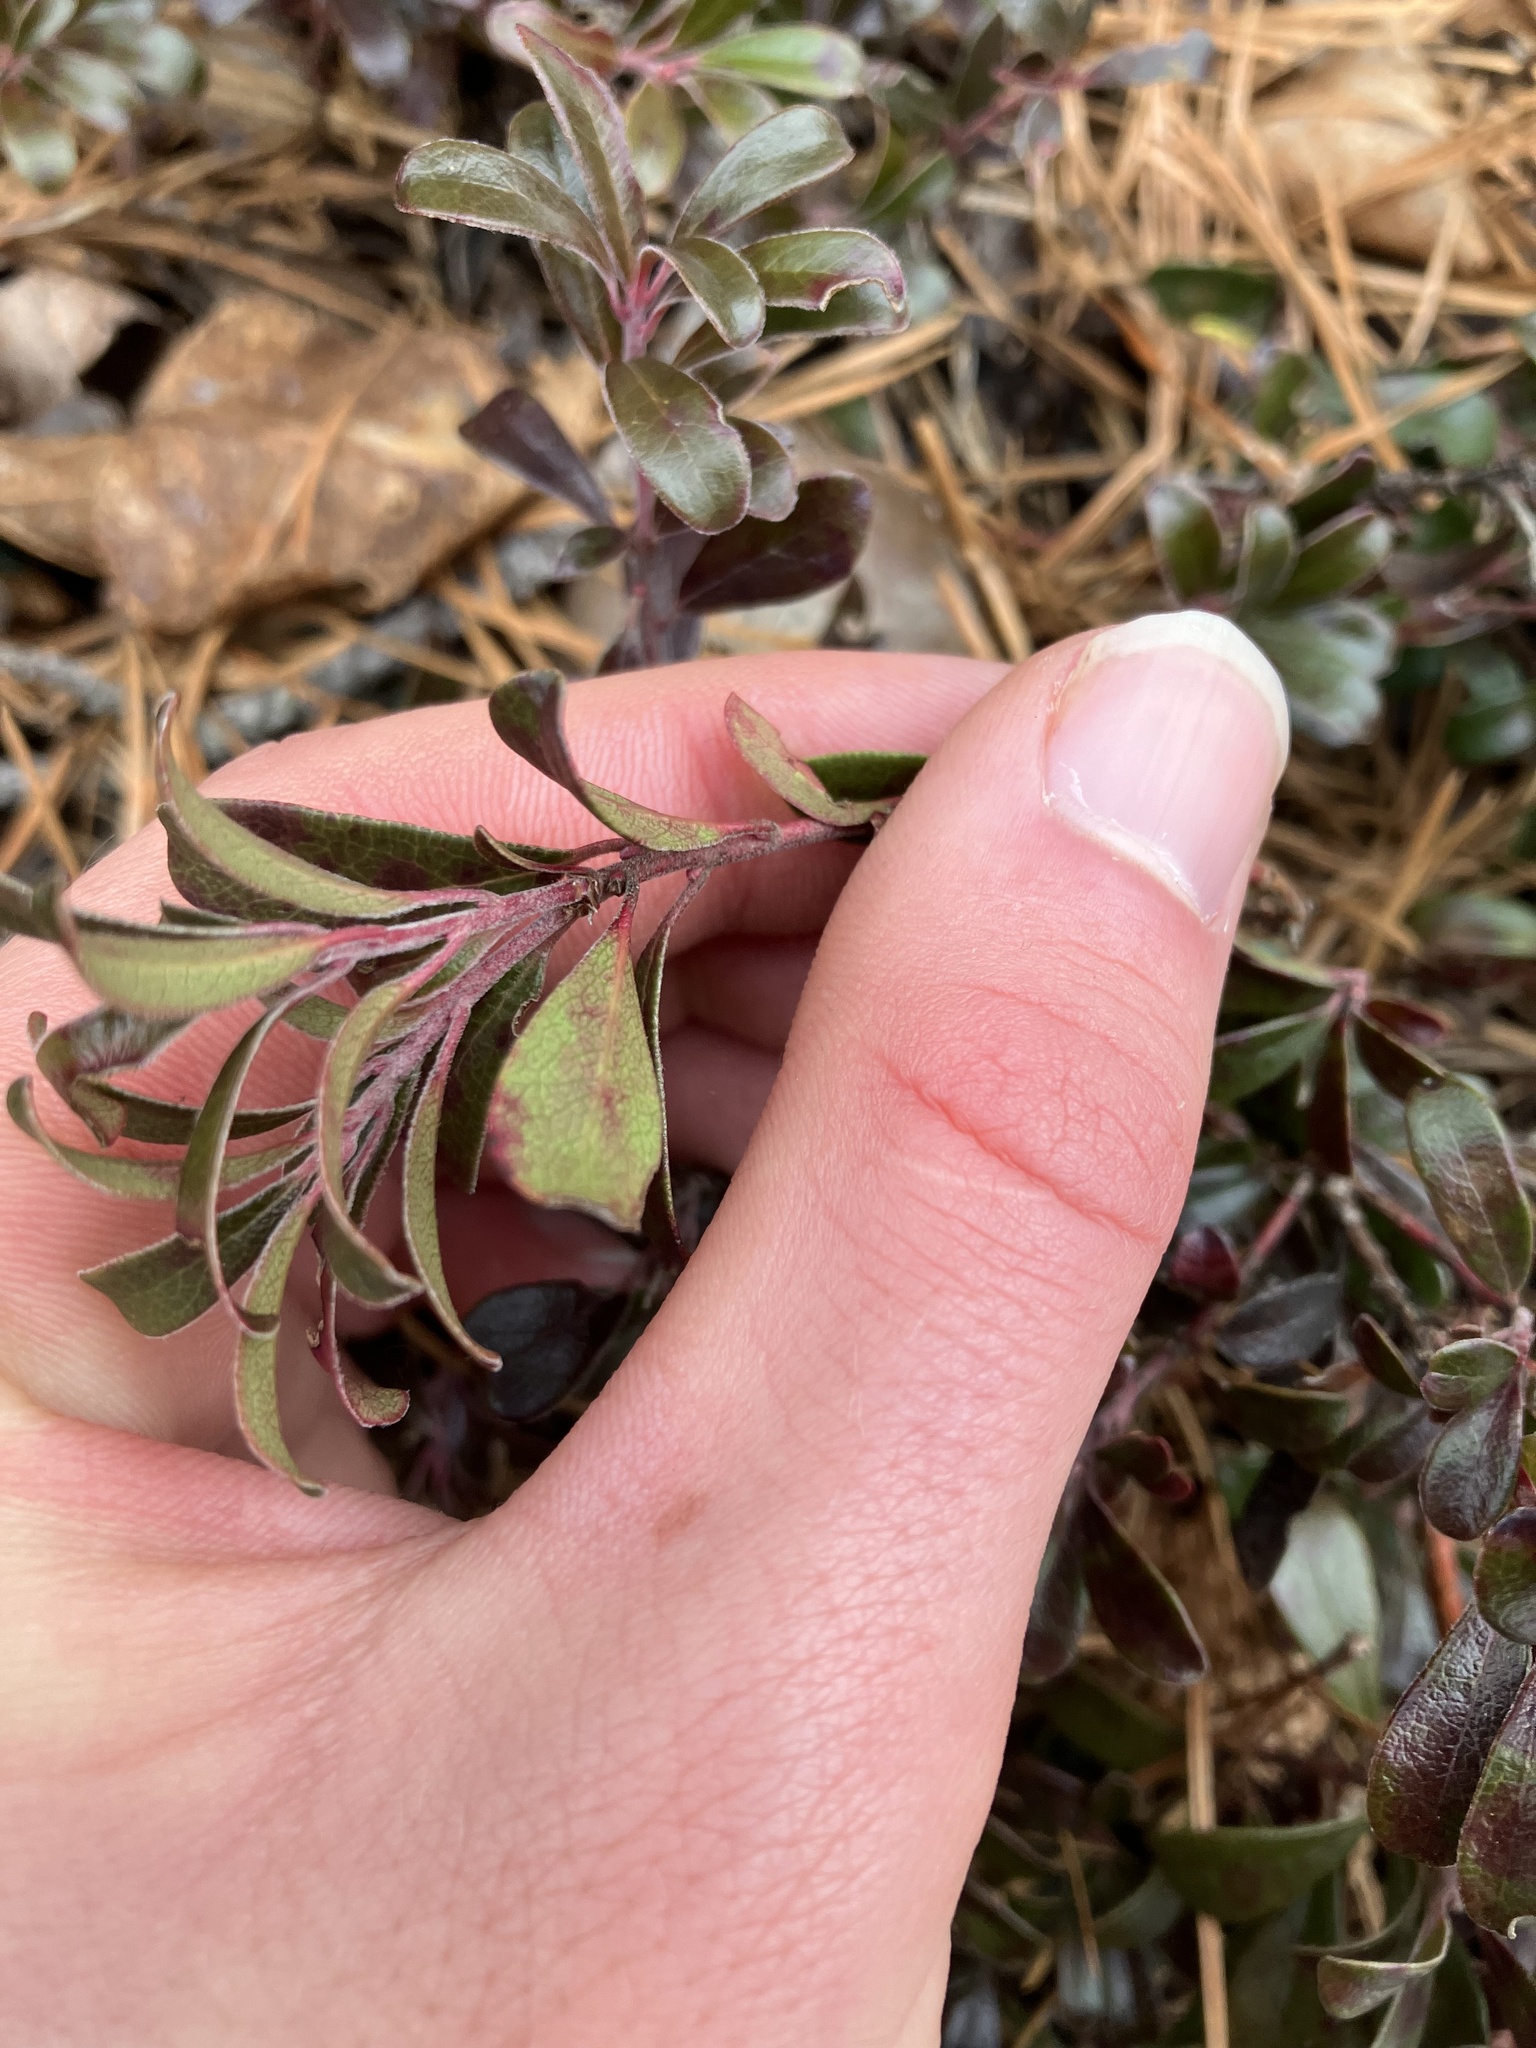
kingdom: Plantae
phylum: Tracheophyta
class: Magnoliopsida
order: Ericales
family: Ericaceae
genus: Arctostaphylos
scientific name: Arctostaphylos uva-ursi
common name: Bearberry
